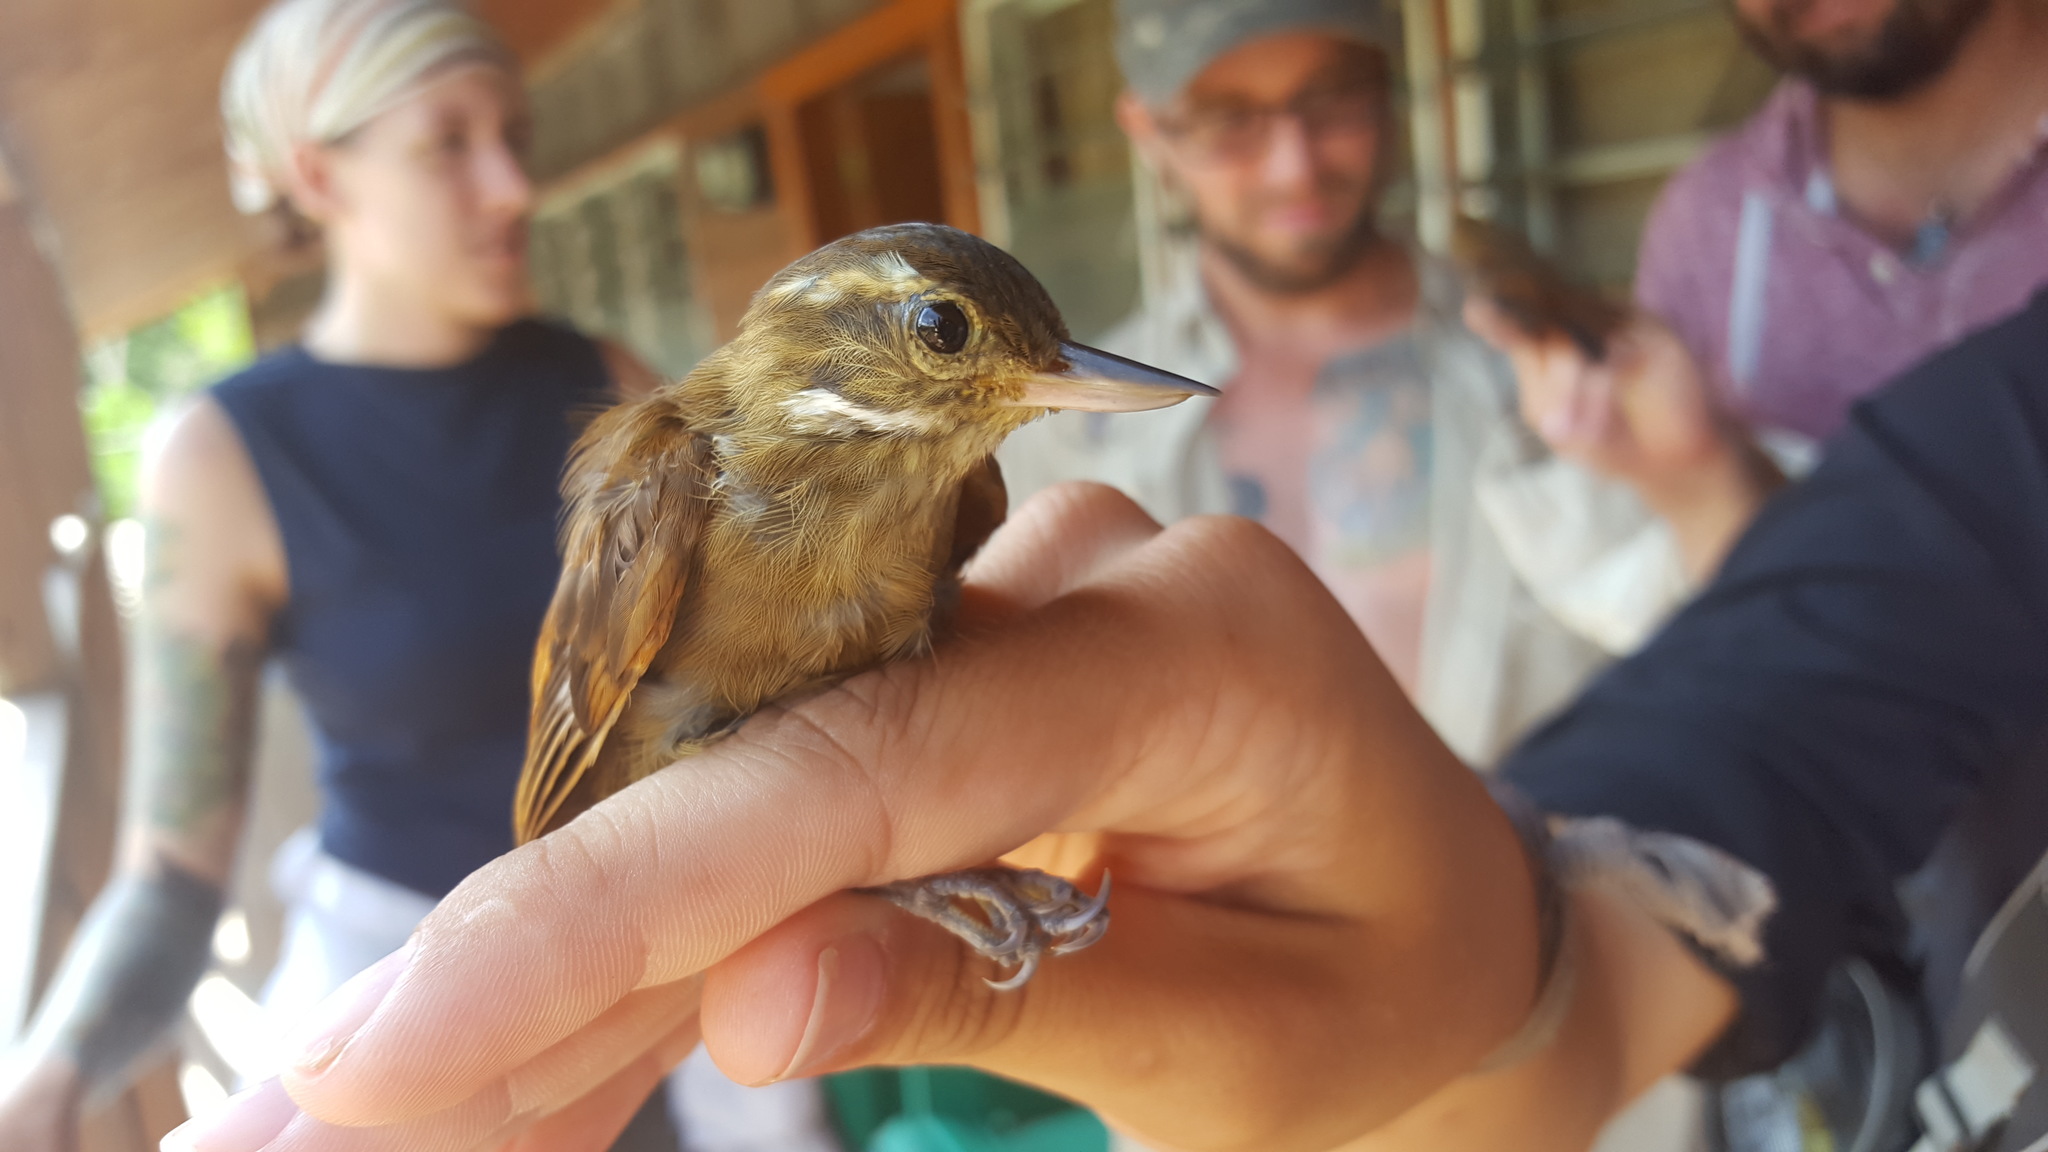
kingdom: Animalia
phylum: Chordata
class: Aves
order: Passeriformes
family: Furnariidae
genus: Xenops
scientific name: Xenops minutus
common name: Plain xenops
